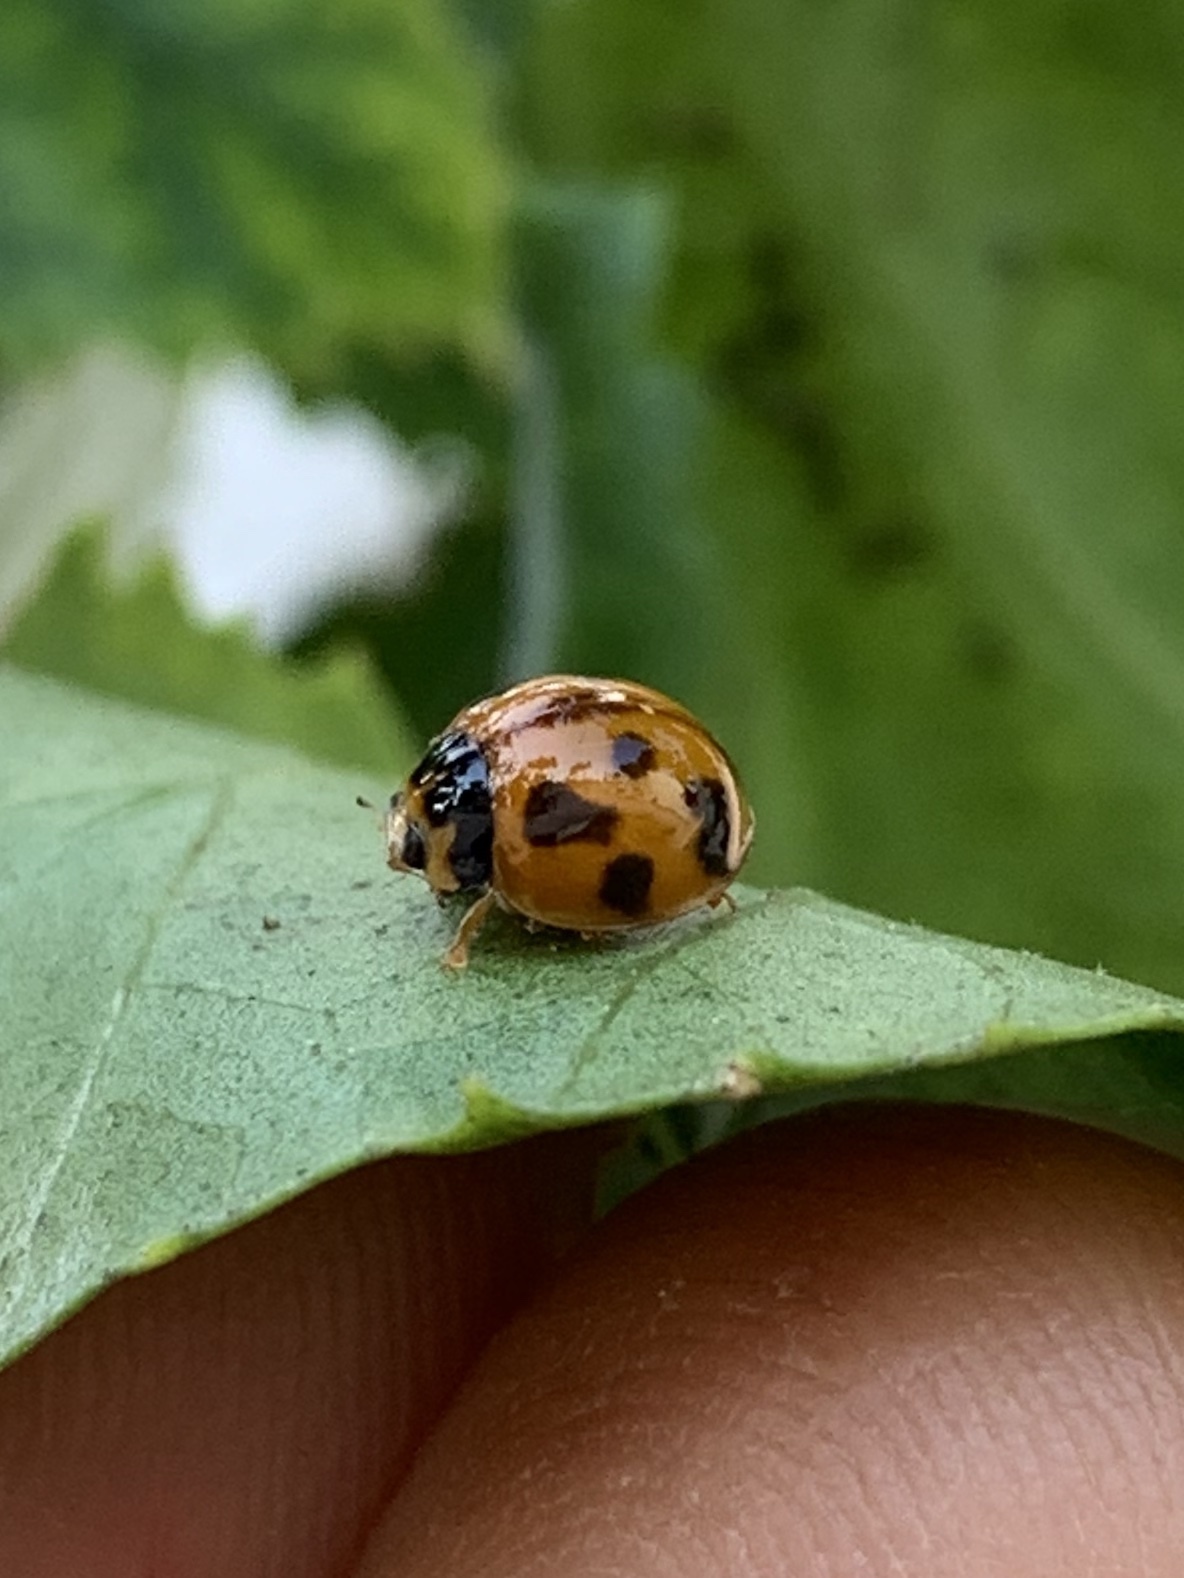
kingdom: Animalia
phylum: Arthropoda
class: Insecta
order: Coleoptera
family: Coccinellidae
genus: Coelophora
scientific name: Coelophora inaequalis
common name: Common australian lady beetle
